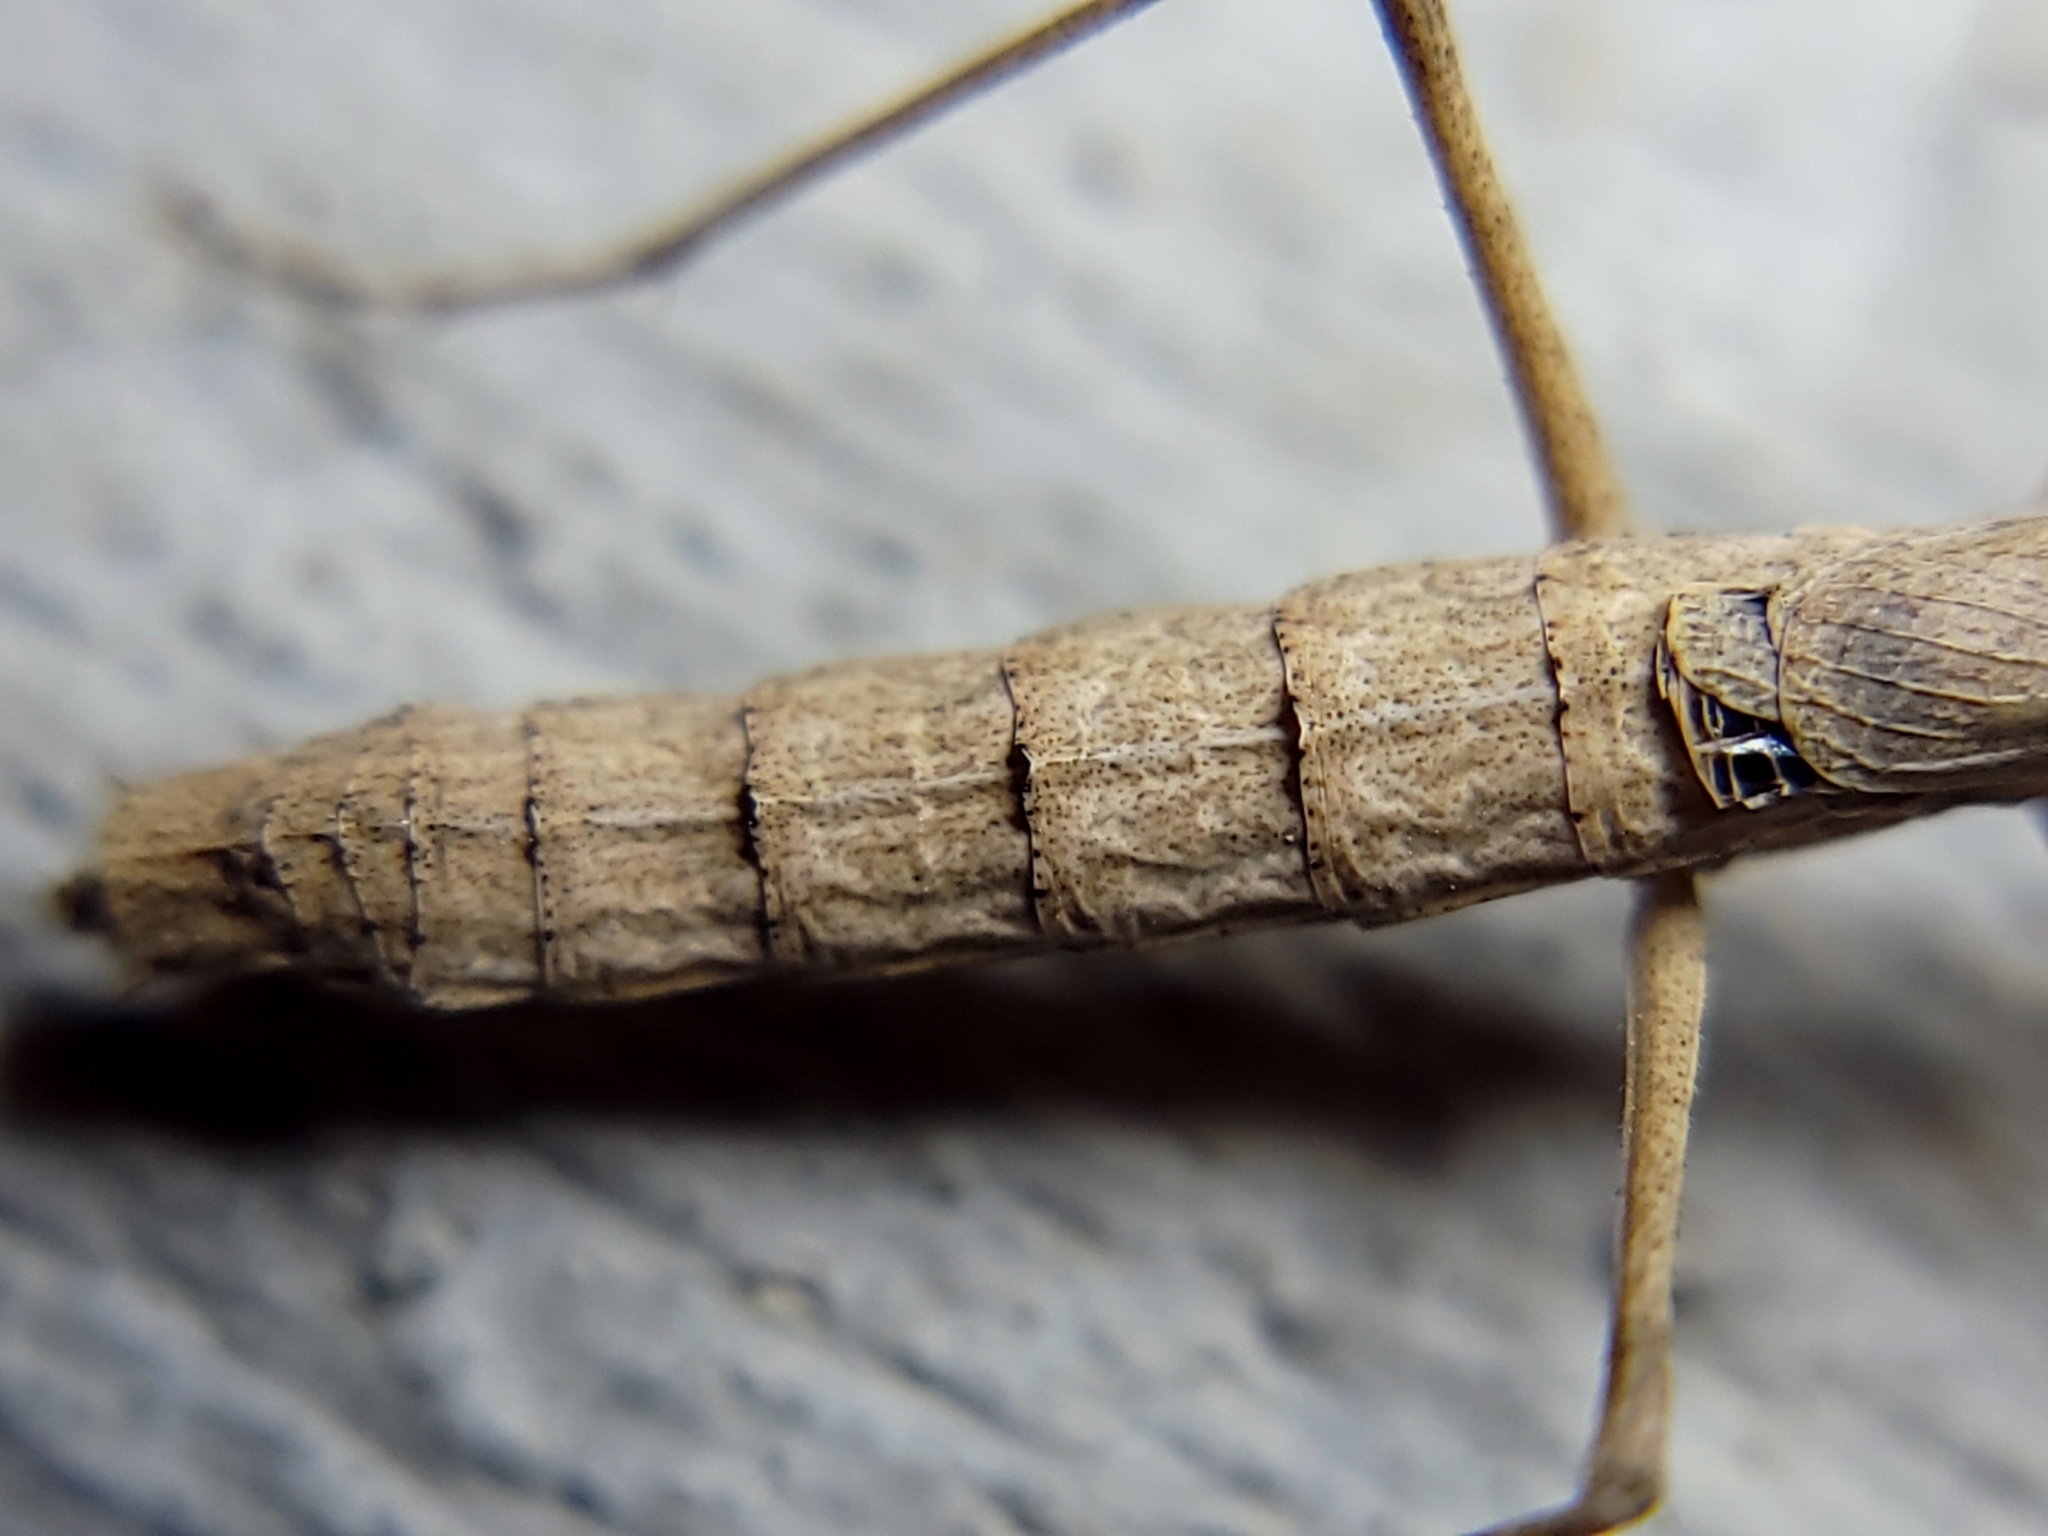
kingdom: Animalia
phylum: Arthropoda
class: Insecta
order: Mantodea
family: Amelidae
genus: Litaneutria
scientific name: Litaneutria pacifica
